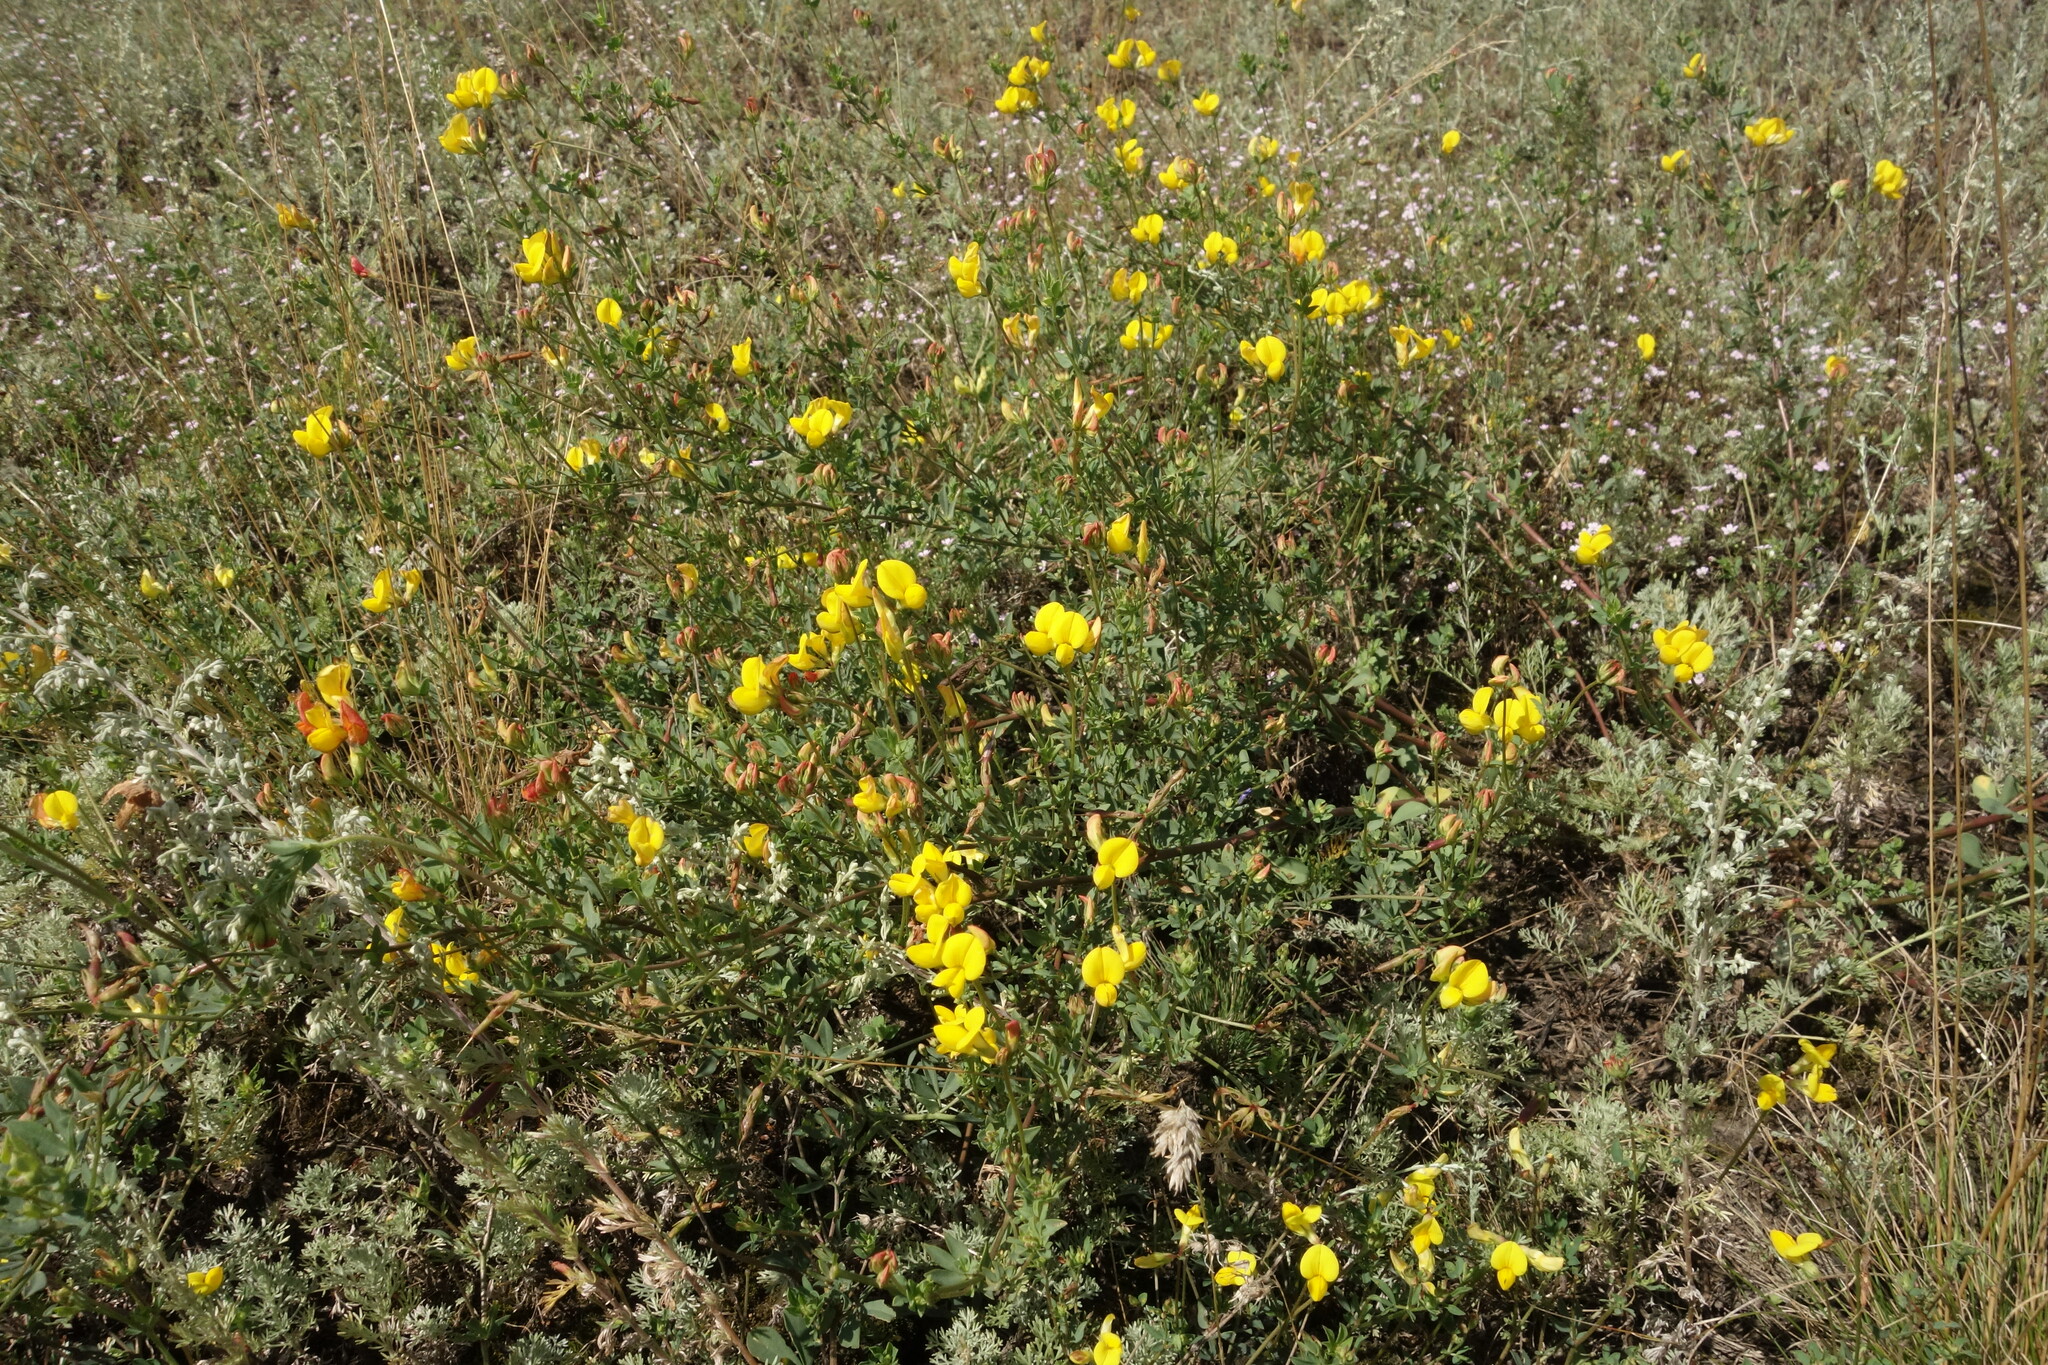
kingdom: Plantae
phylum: Tracheophyta
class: Magnoliopsida
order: Fabales
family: Fabaceae
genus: Lotus
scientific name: Lotus corniculatus
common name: Common bird's-foot-trefoil
